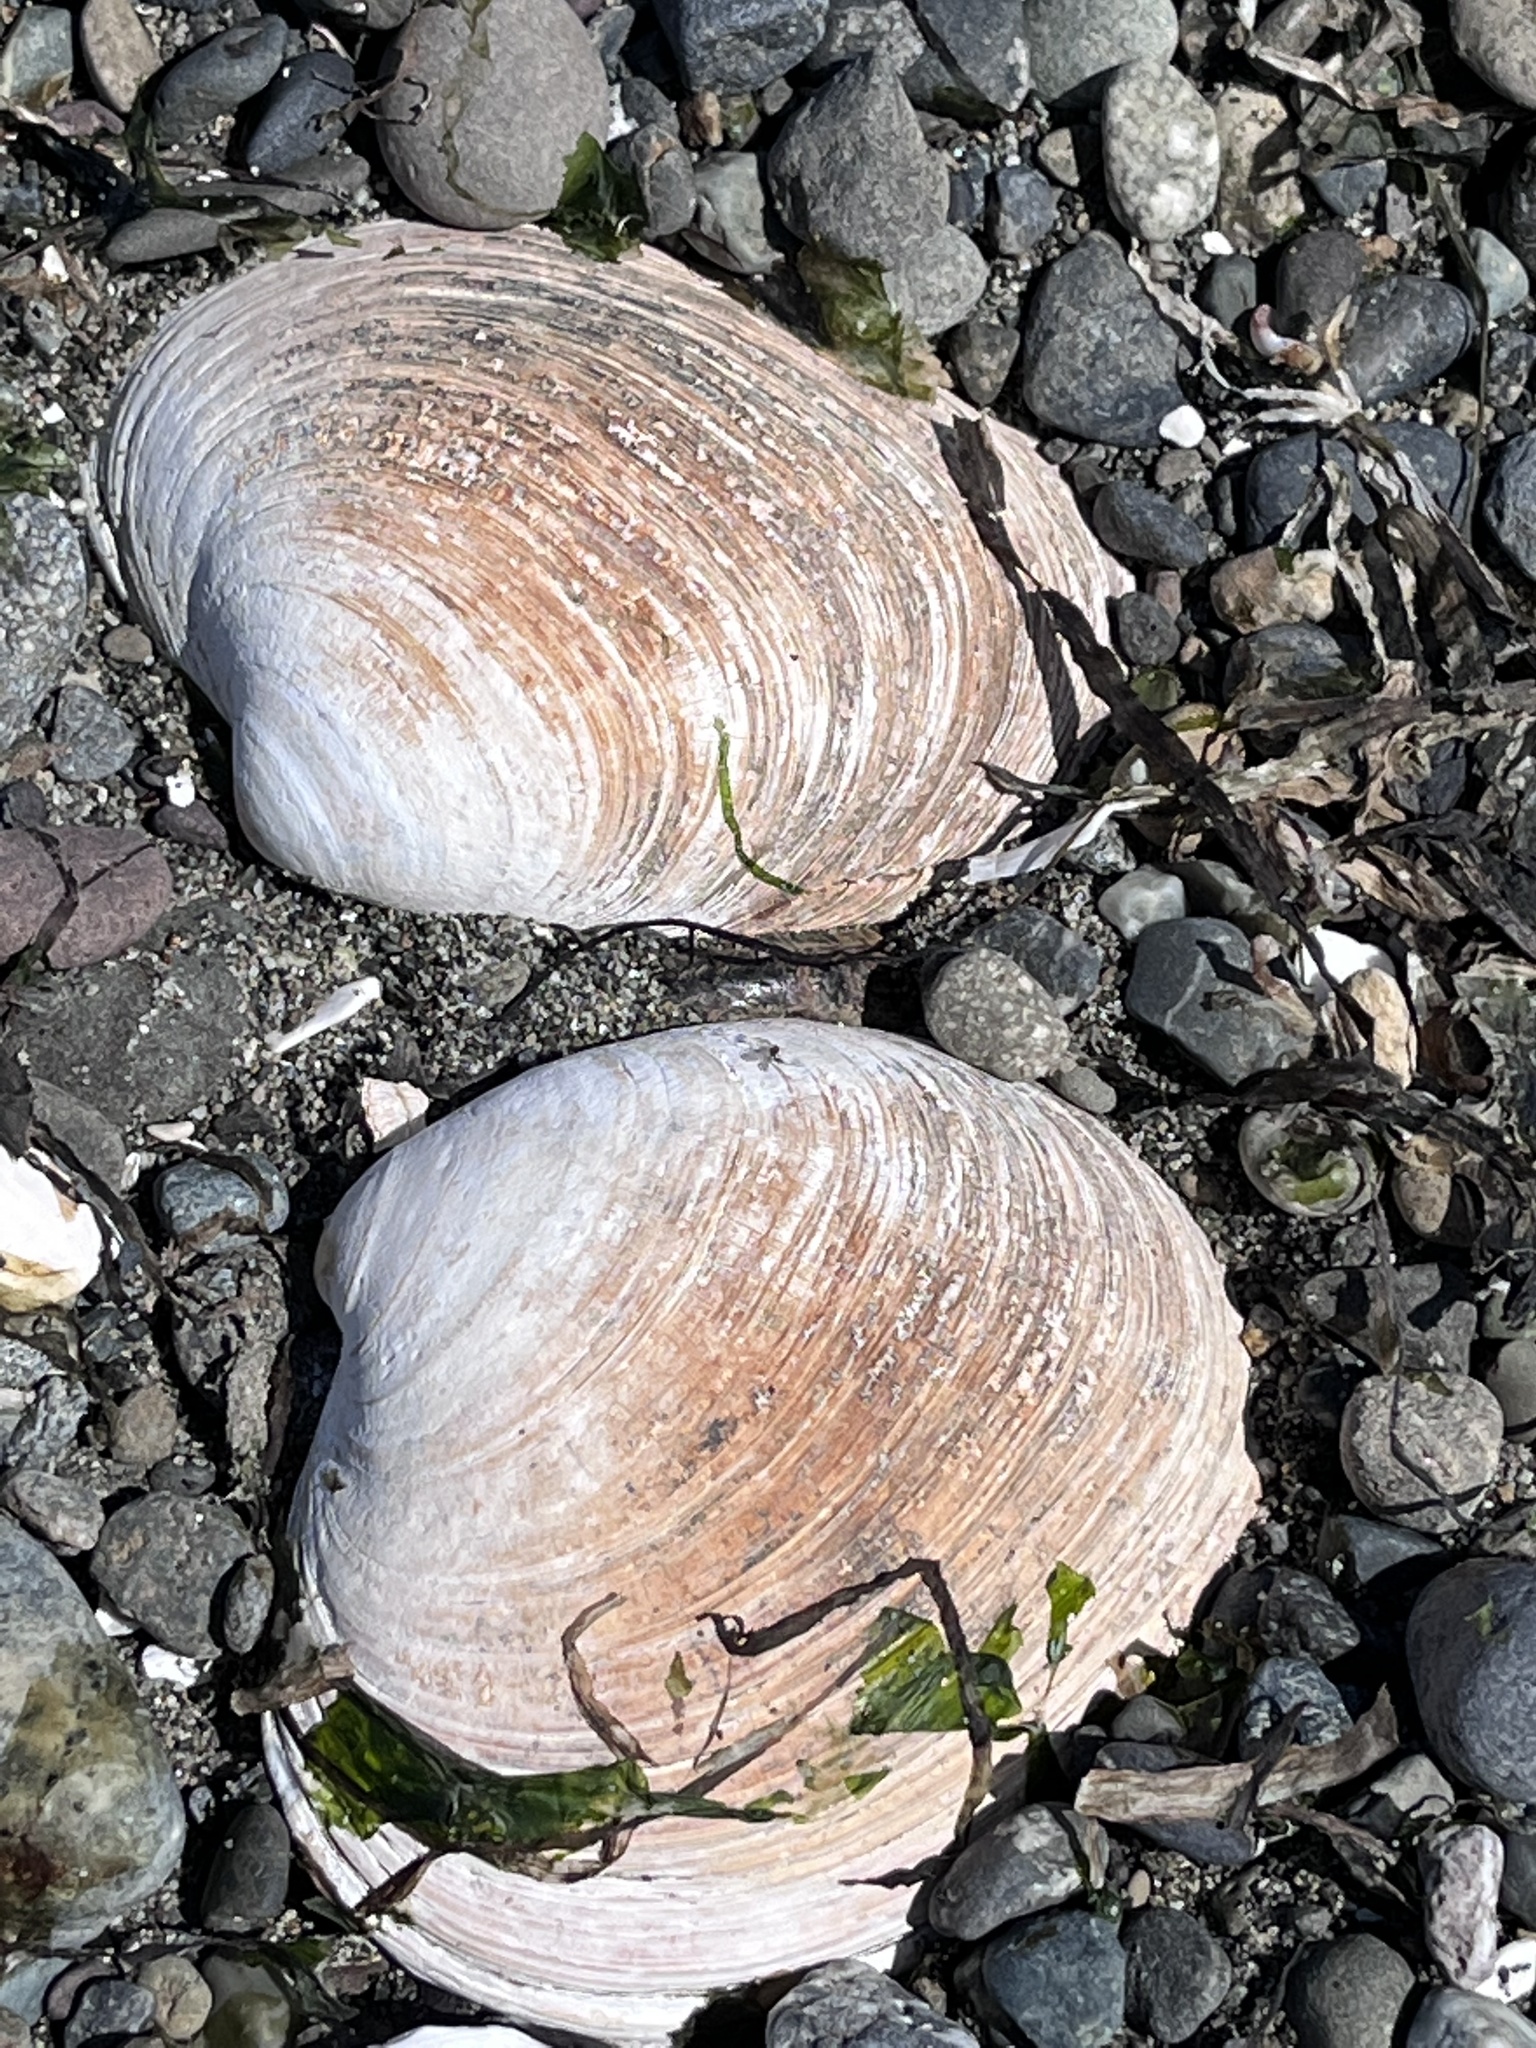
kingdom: Animalia
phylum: Mollusca
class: Bivalvia
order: Venerida
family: Veneridae
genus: Saxidomus
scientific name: Saxidomus gigantea
